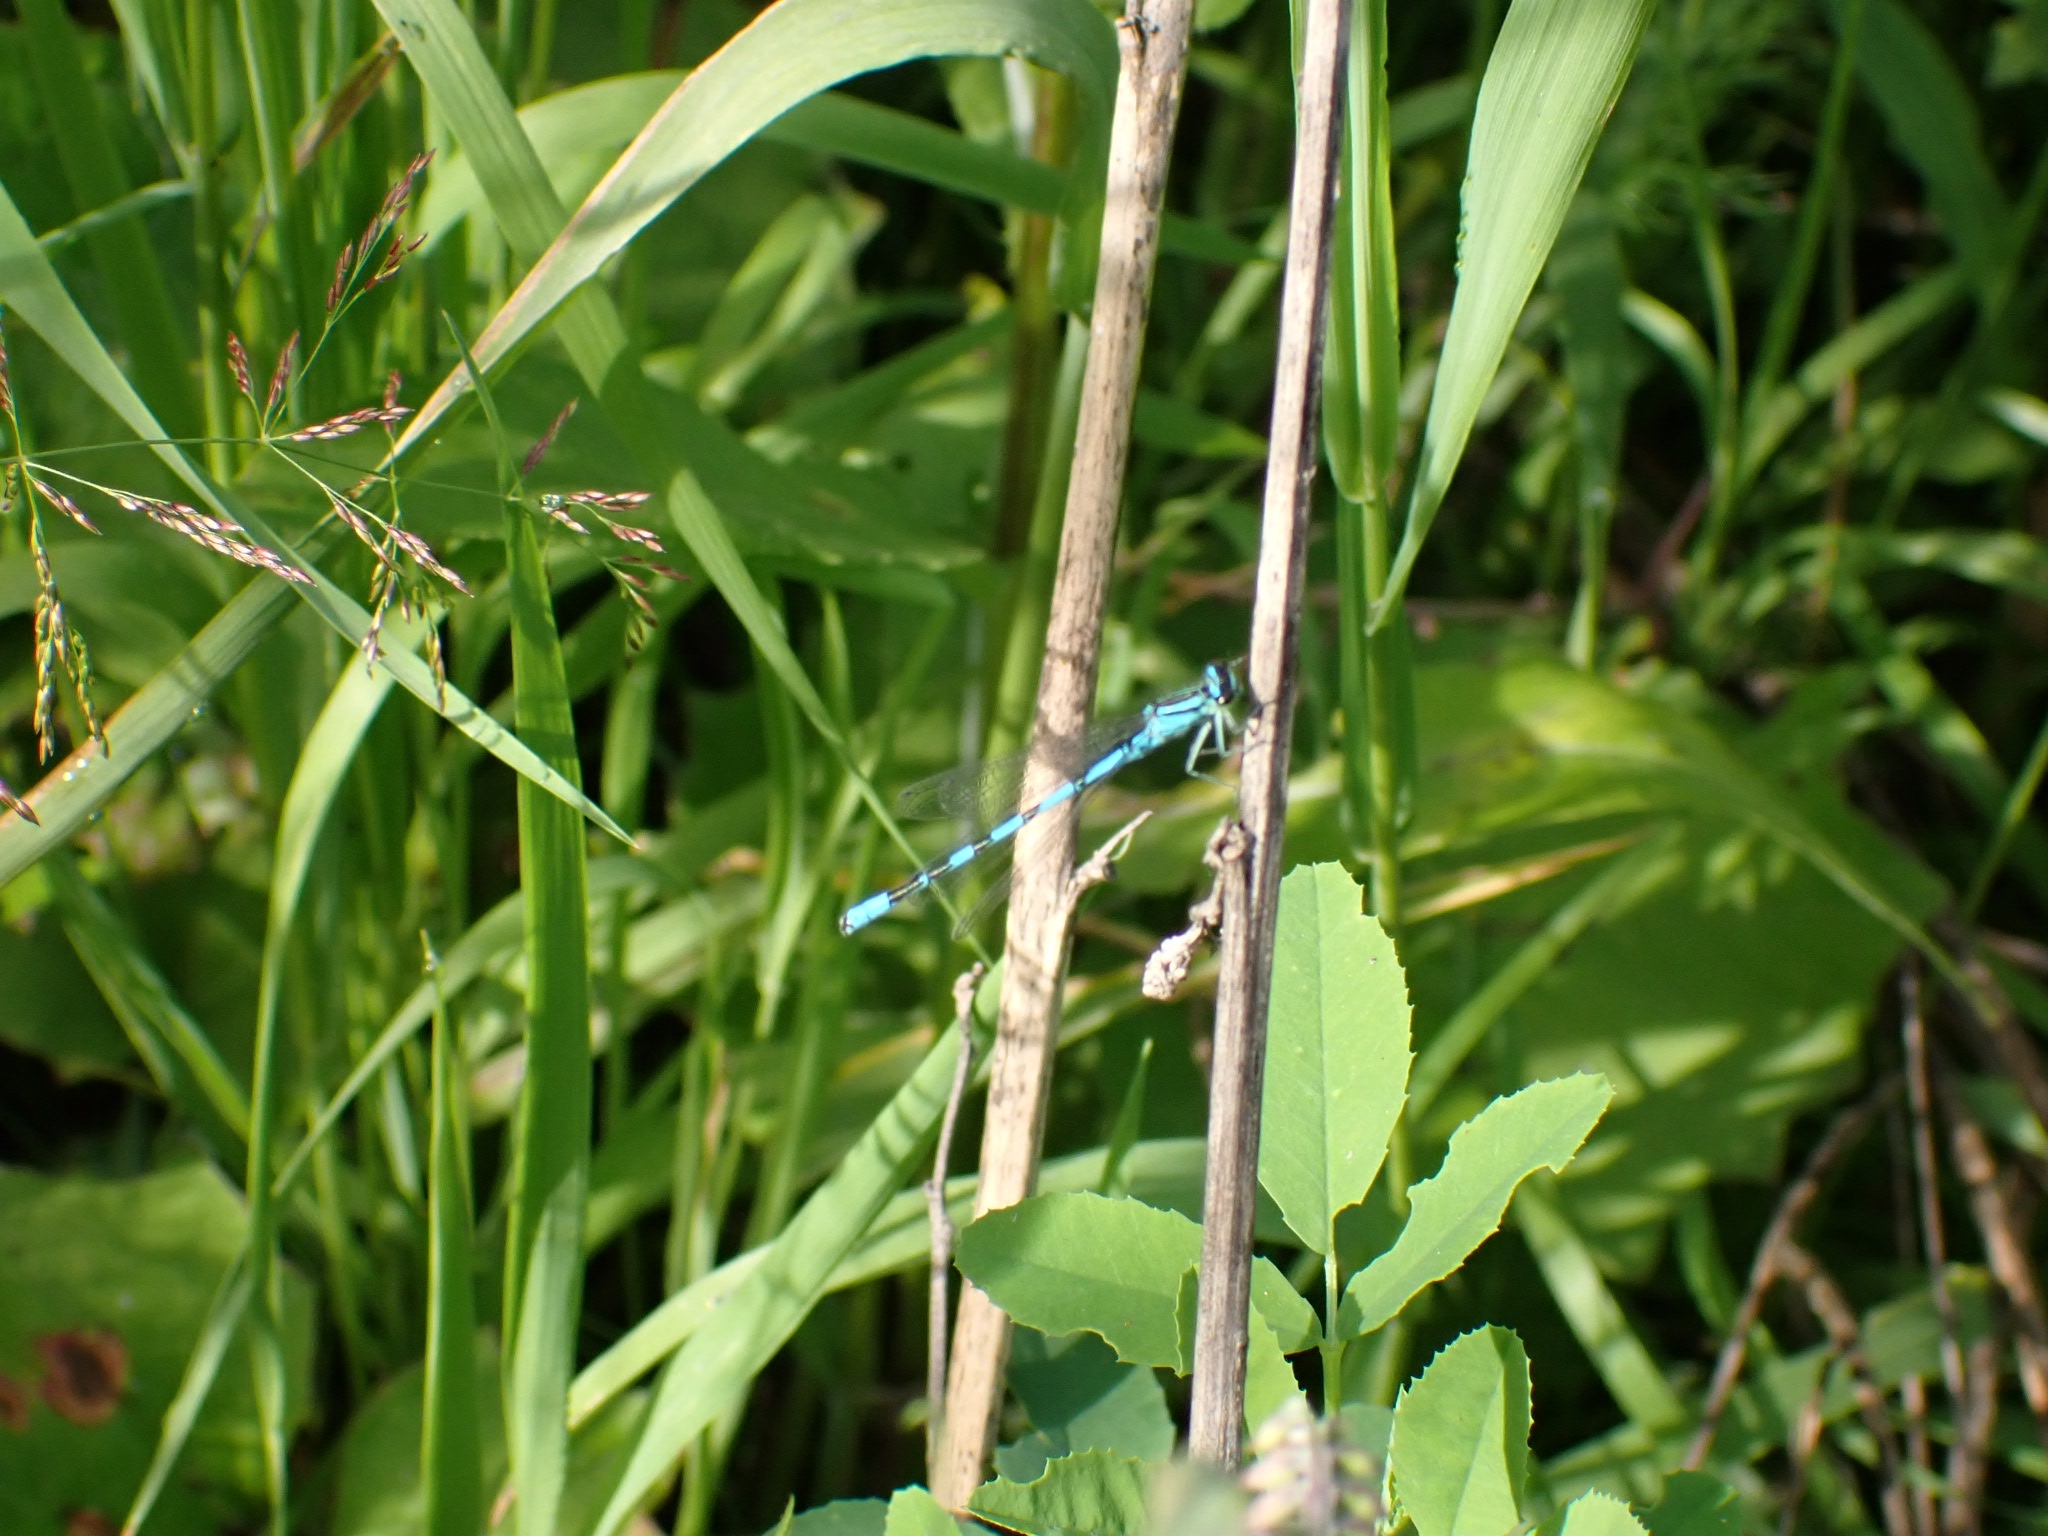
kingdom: Animalia
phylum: Arthropoda
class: Insecta
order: Odonata
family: Coenagrionidae
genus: Coenagrion
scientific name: Coenagrion hastulatum
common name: Spearhead bluet
